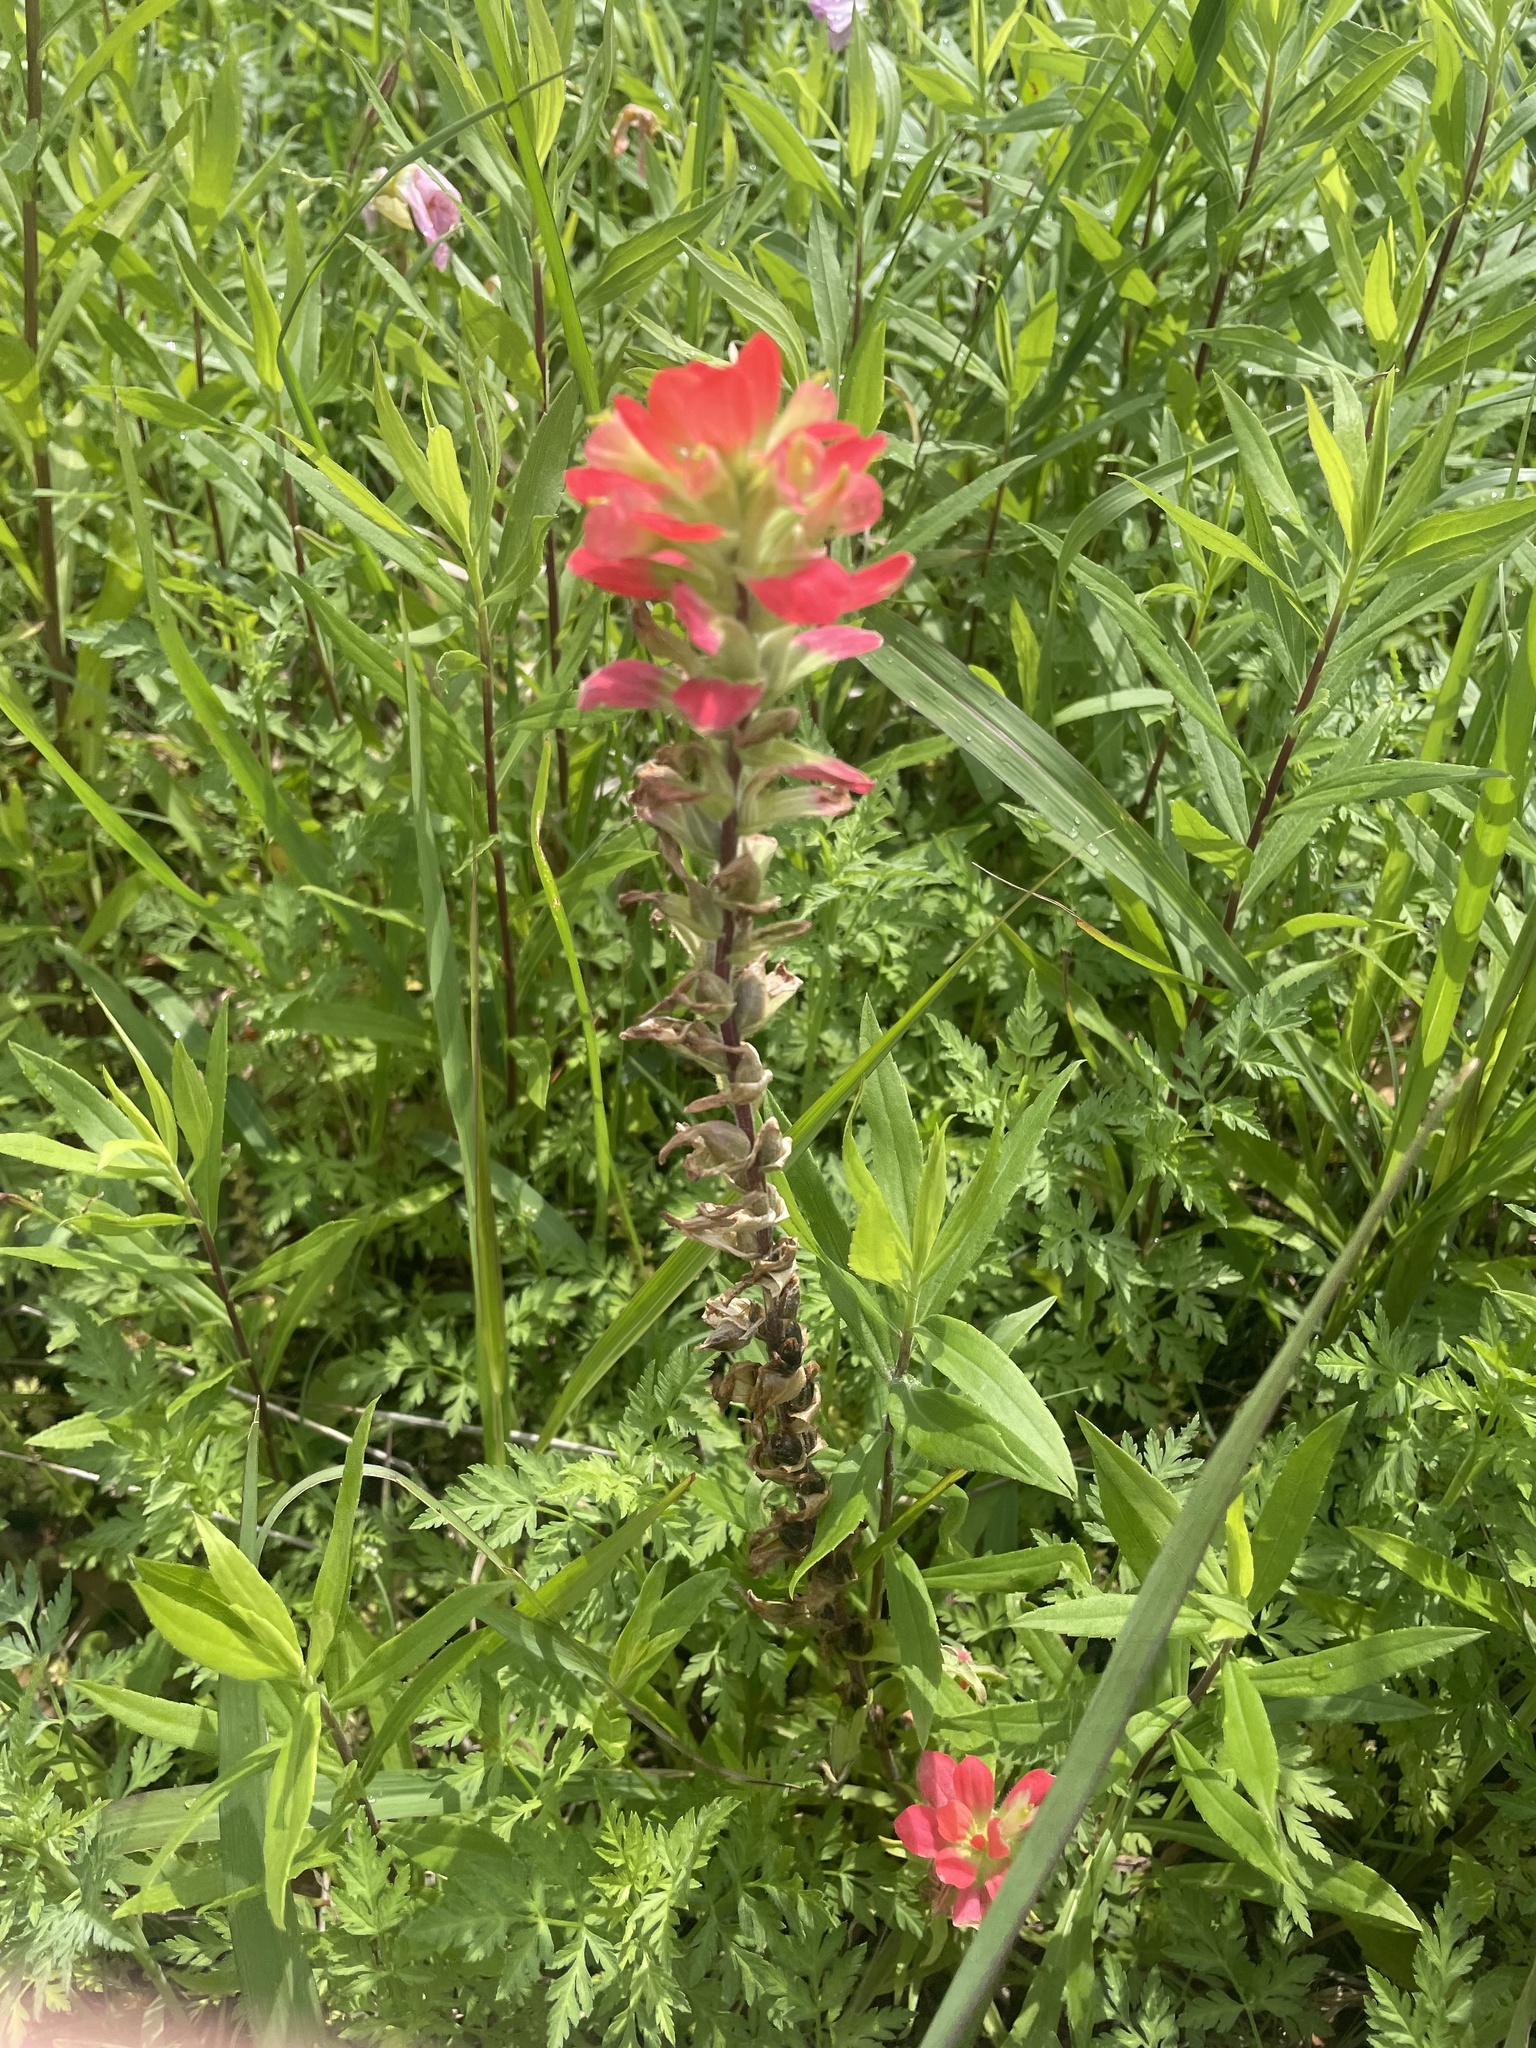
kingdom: Plantae
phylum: Tracheophyta
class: Magnoliopsida
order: Lamiales
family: Orobanchaceae
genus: Castilleja
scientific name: Castilleja indivisa
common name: Texas paintbrush
